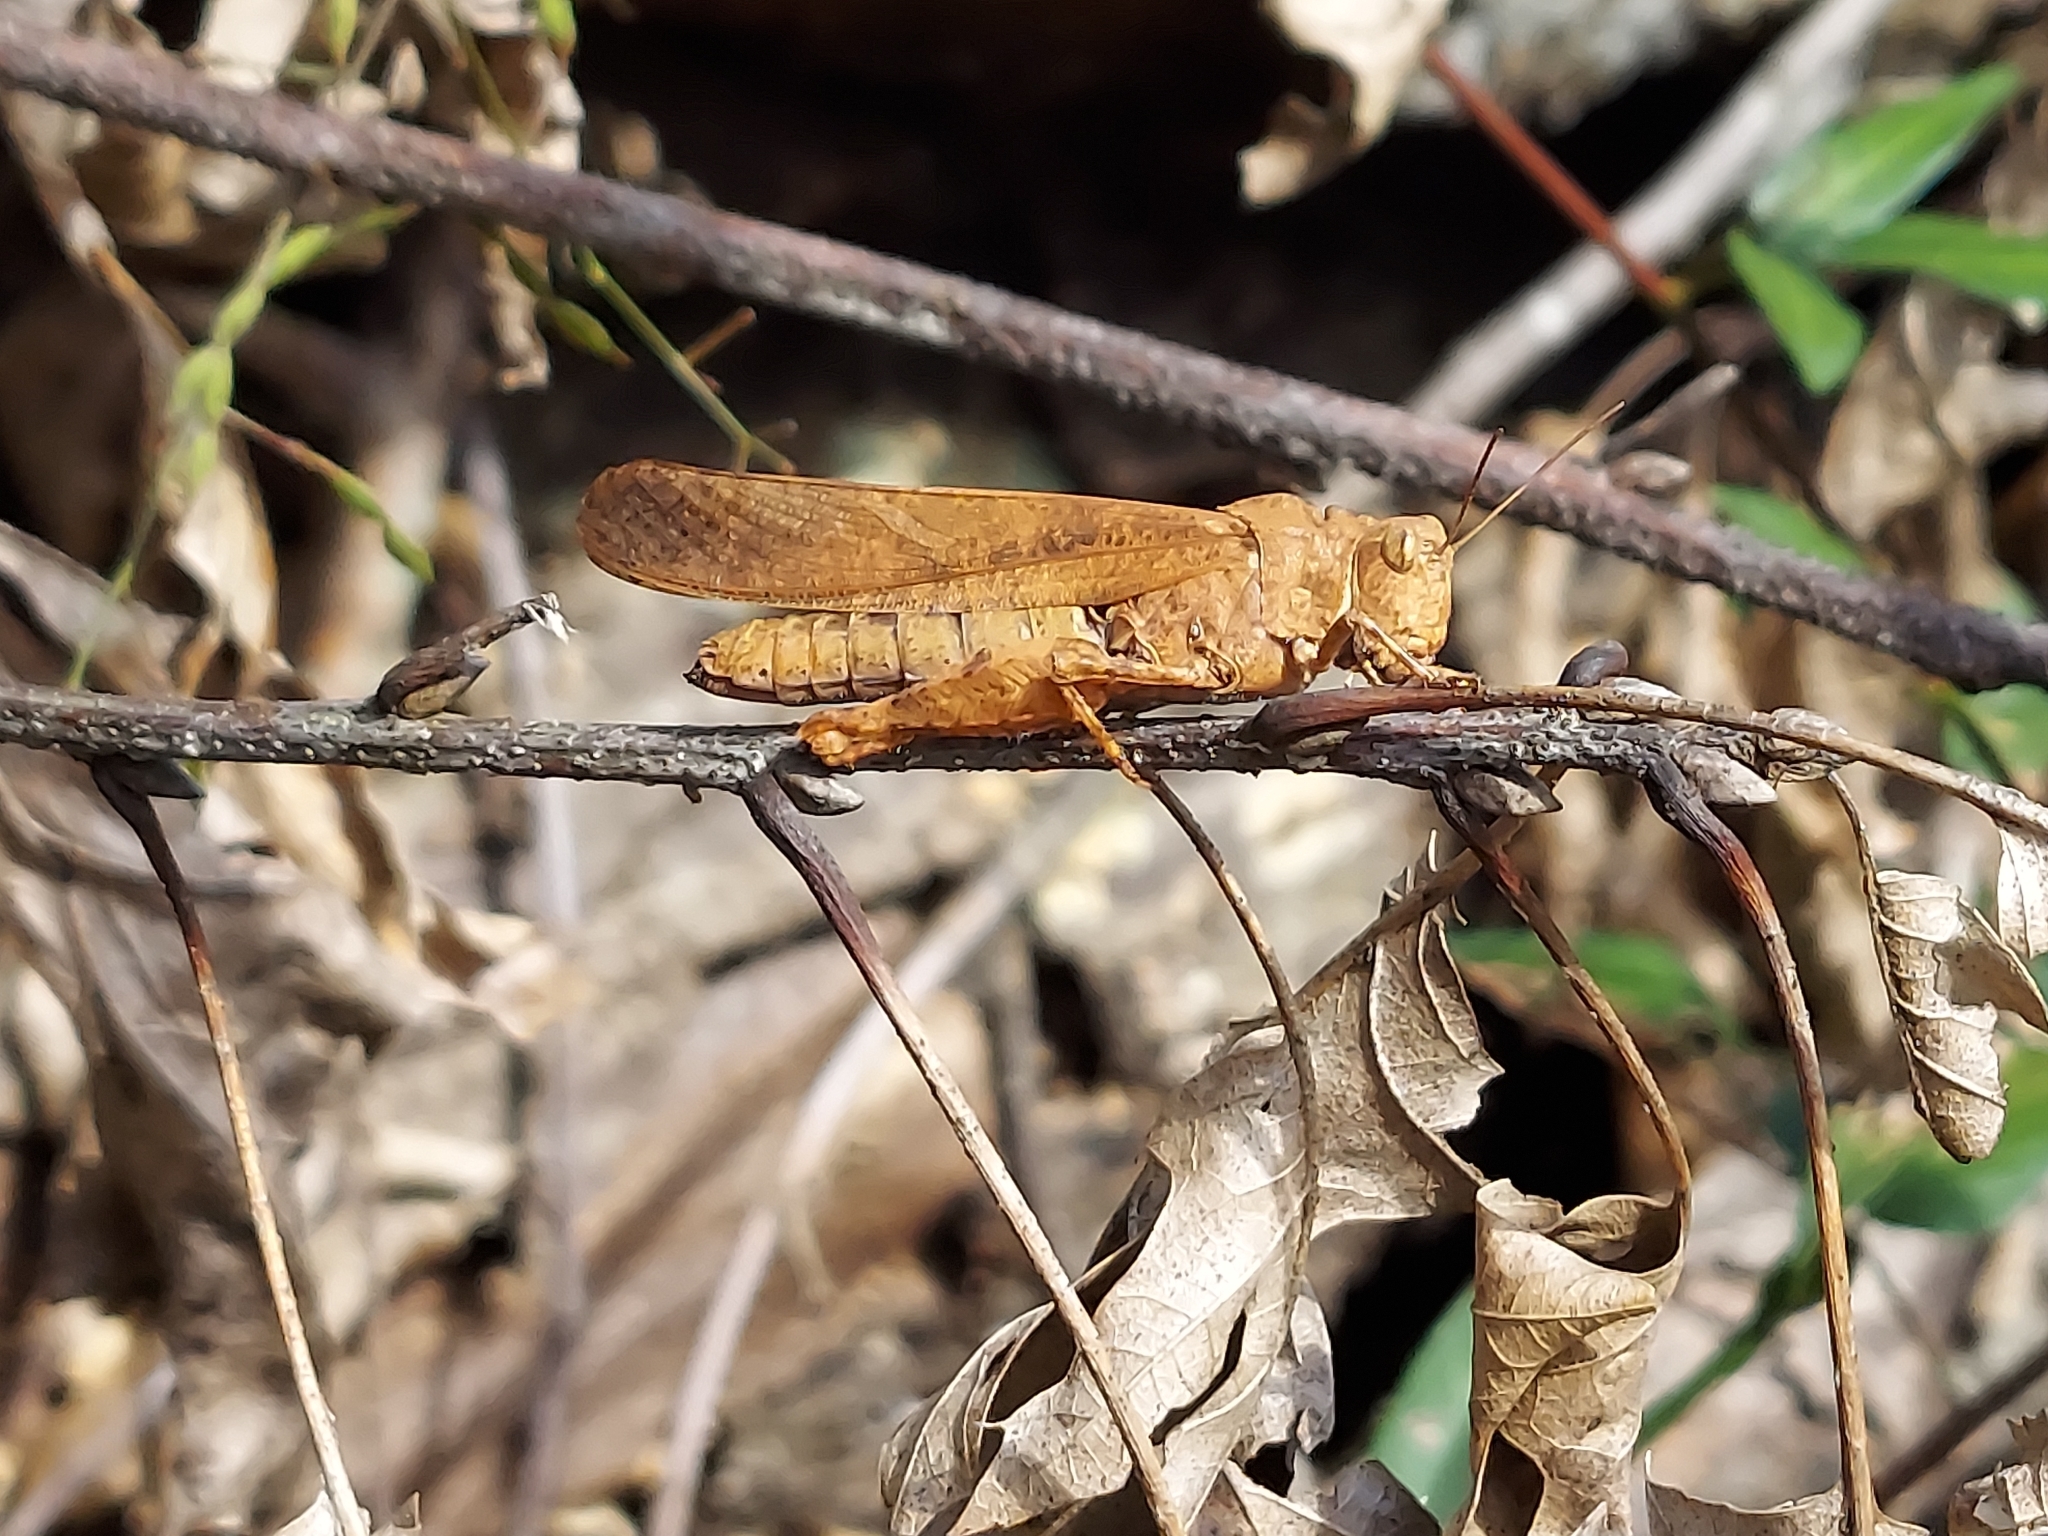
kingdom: Animalia
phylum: Arthropoda
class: Insecta
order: Orthoptera
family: Acrididae
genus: Dissosteira
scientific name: Dissosteira carolina
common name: Carolina grasshopper
